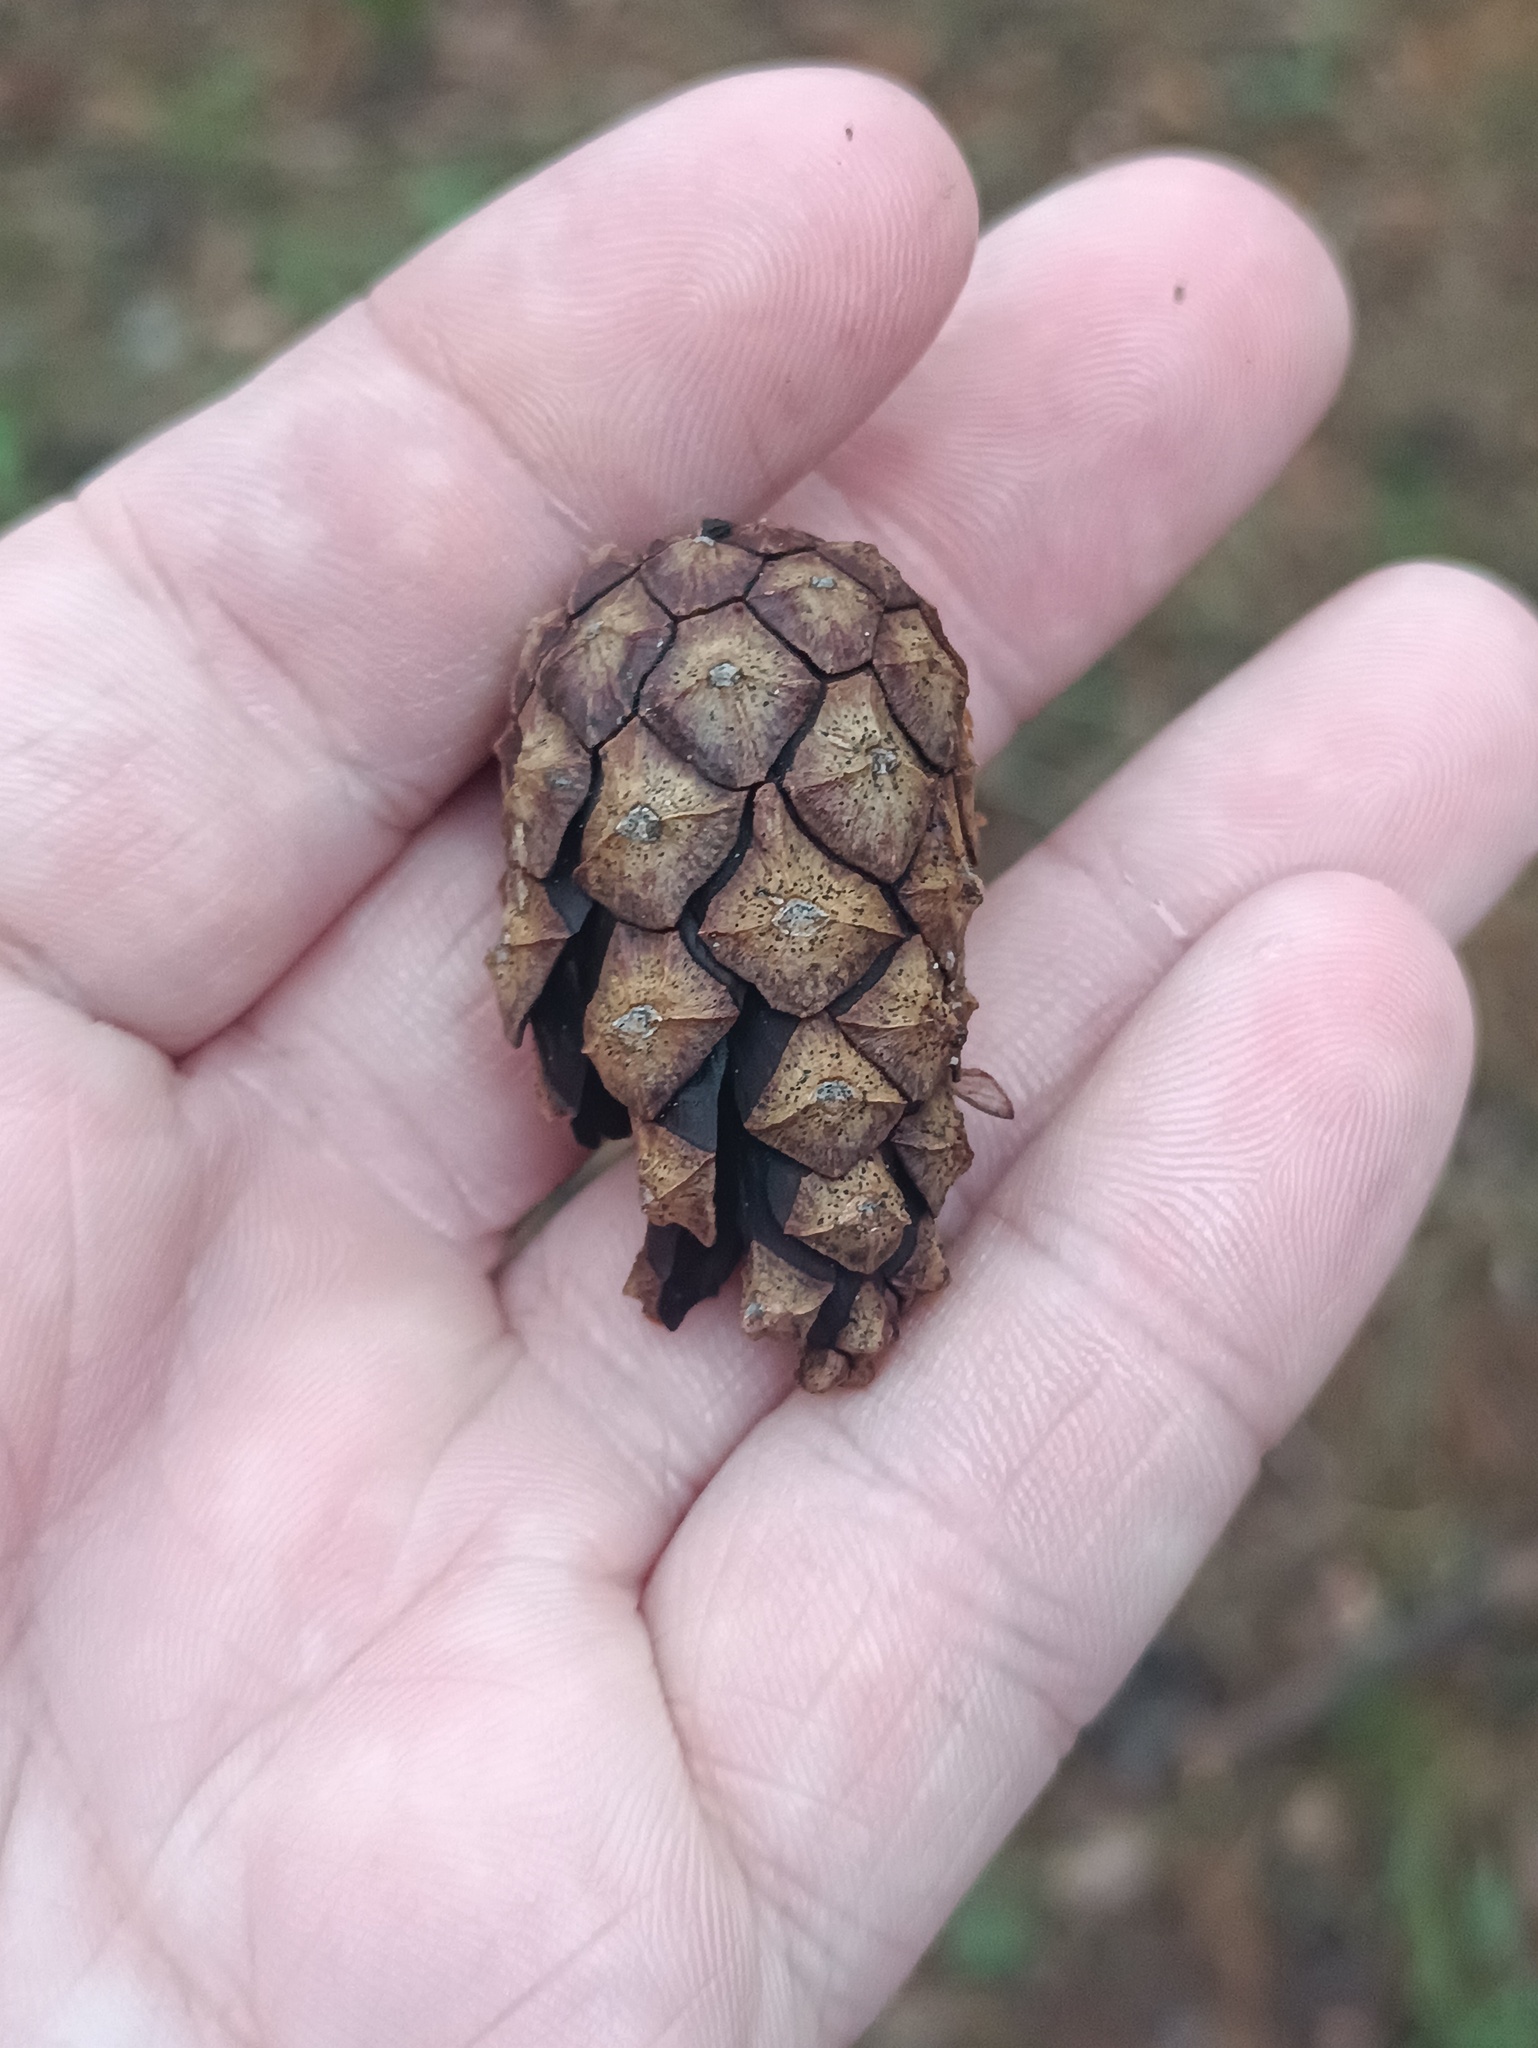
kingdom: Plantae
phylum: Tracheophyta
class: Pinopsida
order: Pinales
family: Pinaceae
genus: Pinus
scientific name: Pinus sylvestris
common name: Scots pine
